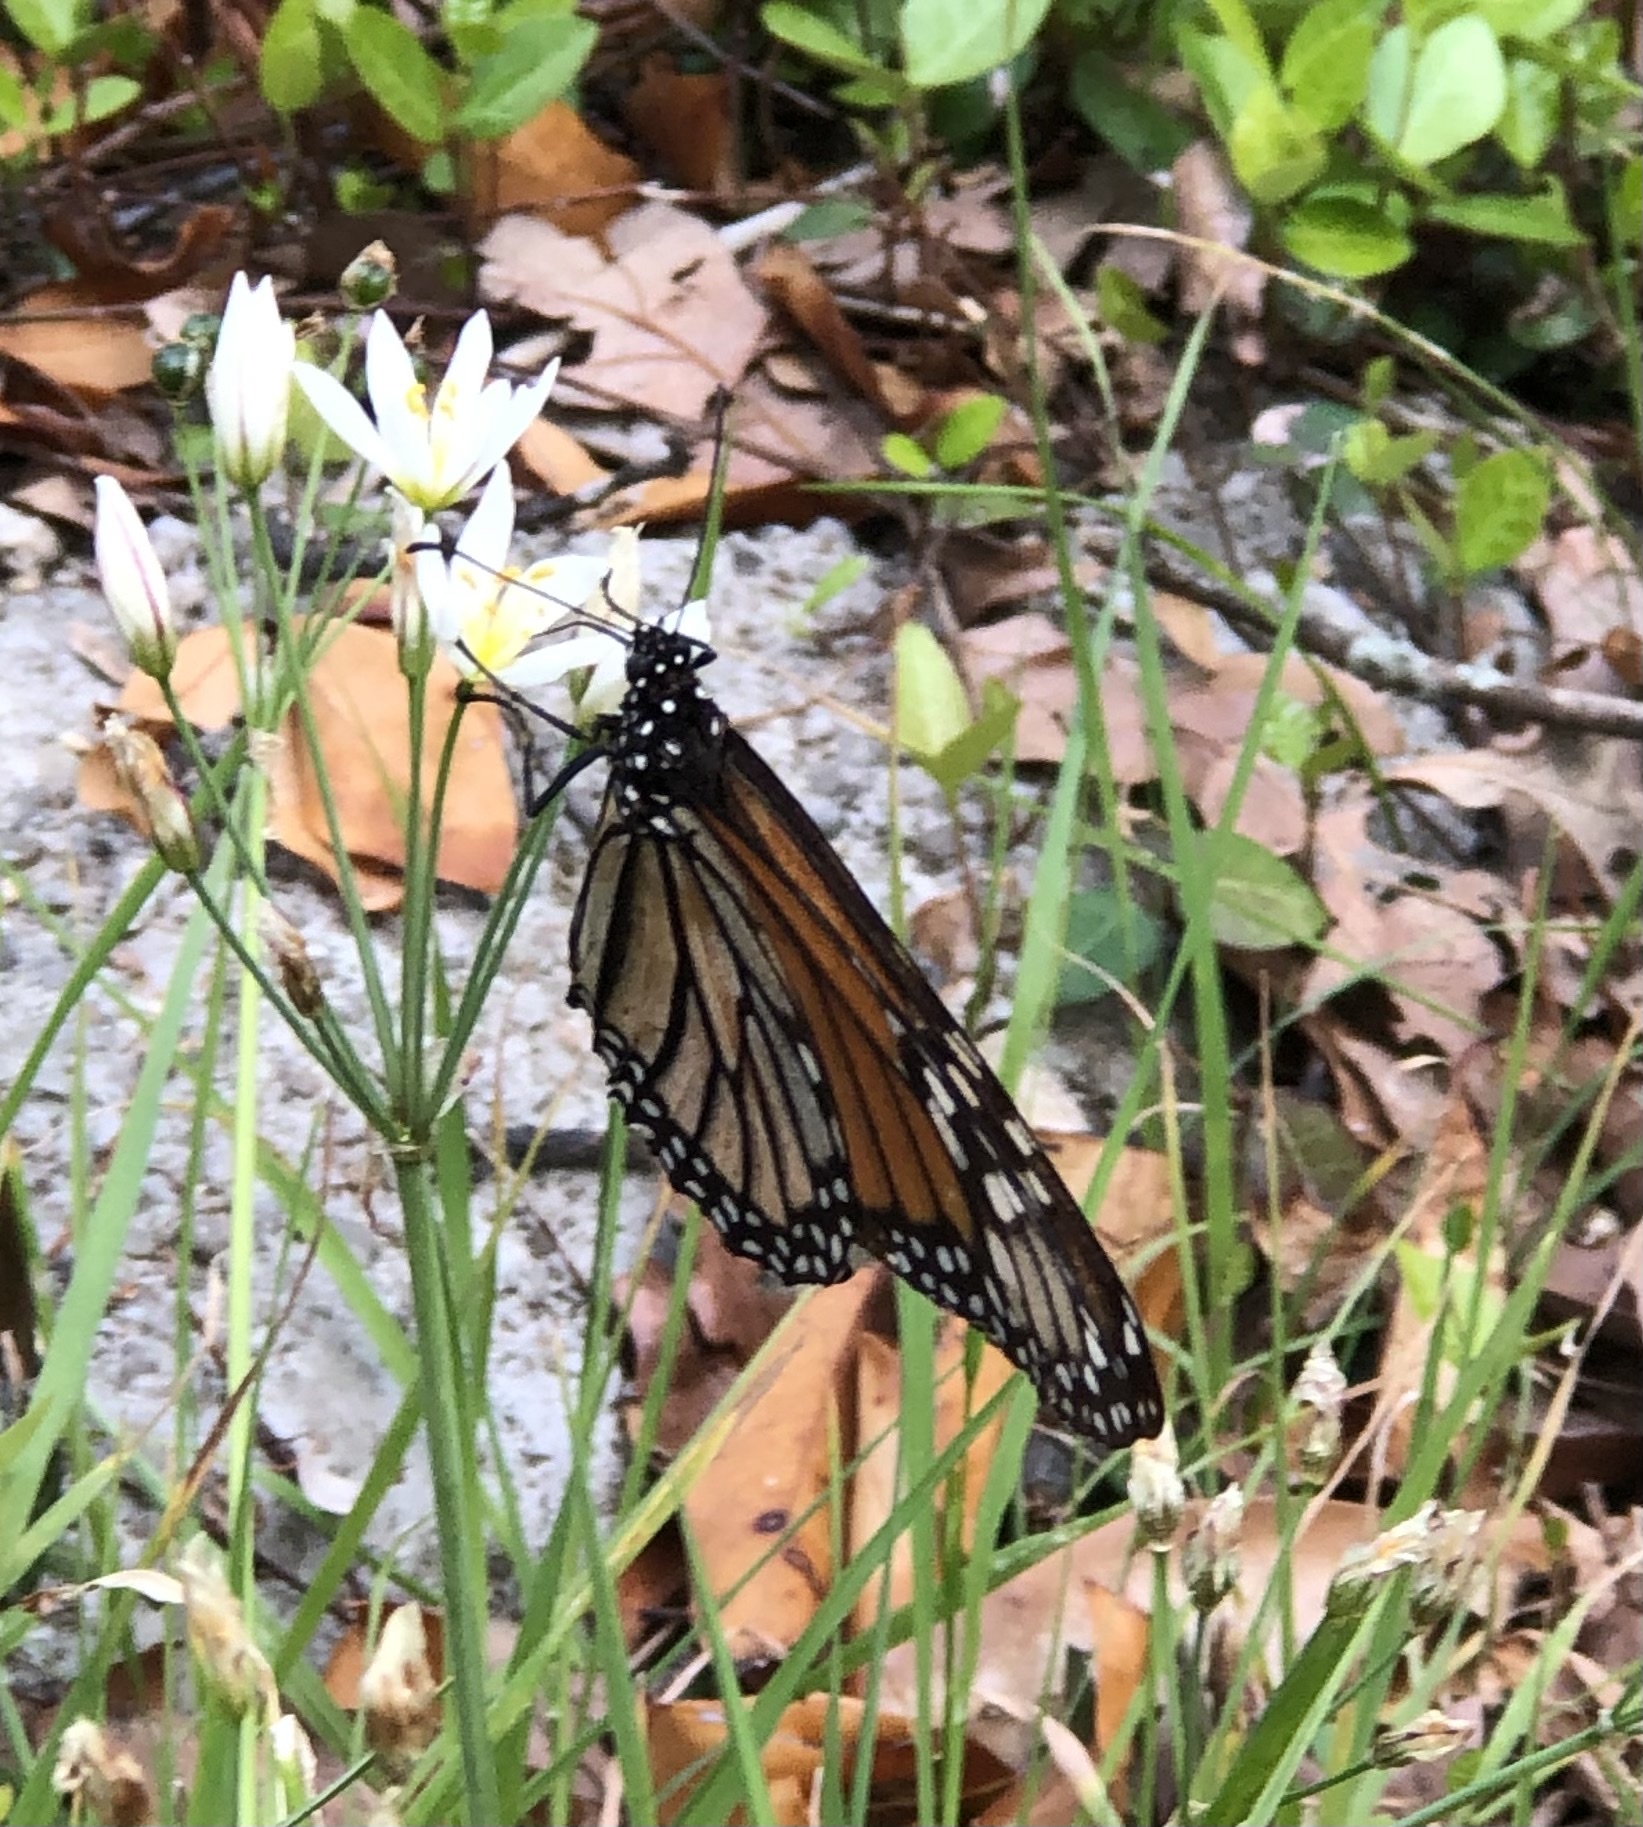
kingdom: Animalia
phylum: Arthropoda
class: Insecta
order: Lepidoptera
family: Nymphalidae
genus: Danaus
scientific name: Danaus plexippus
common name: Monarch
